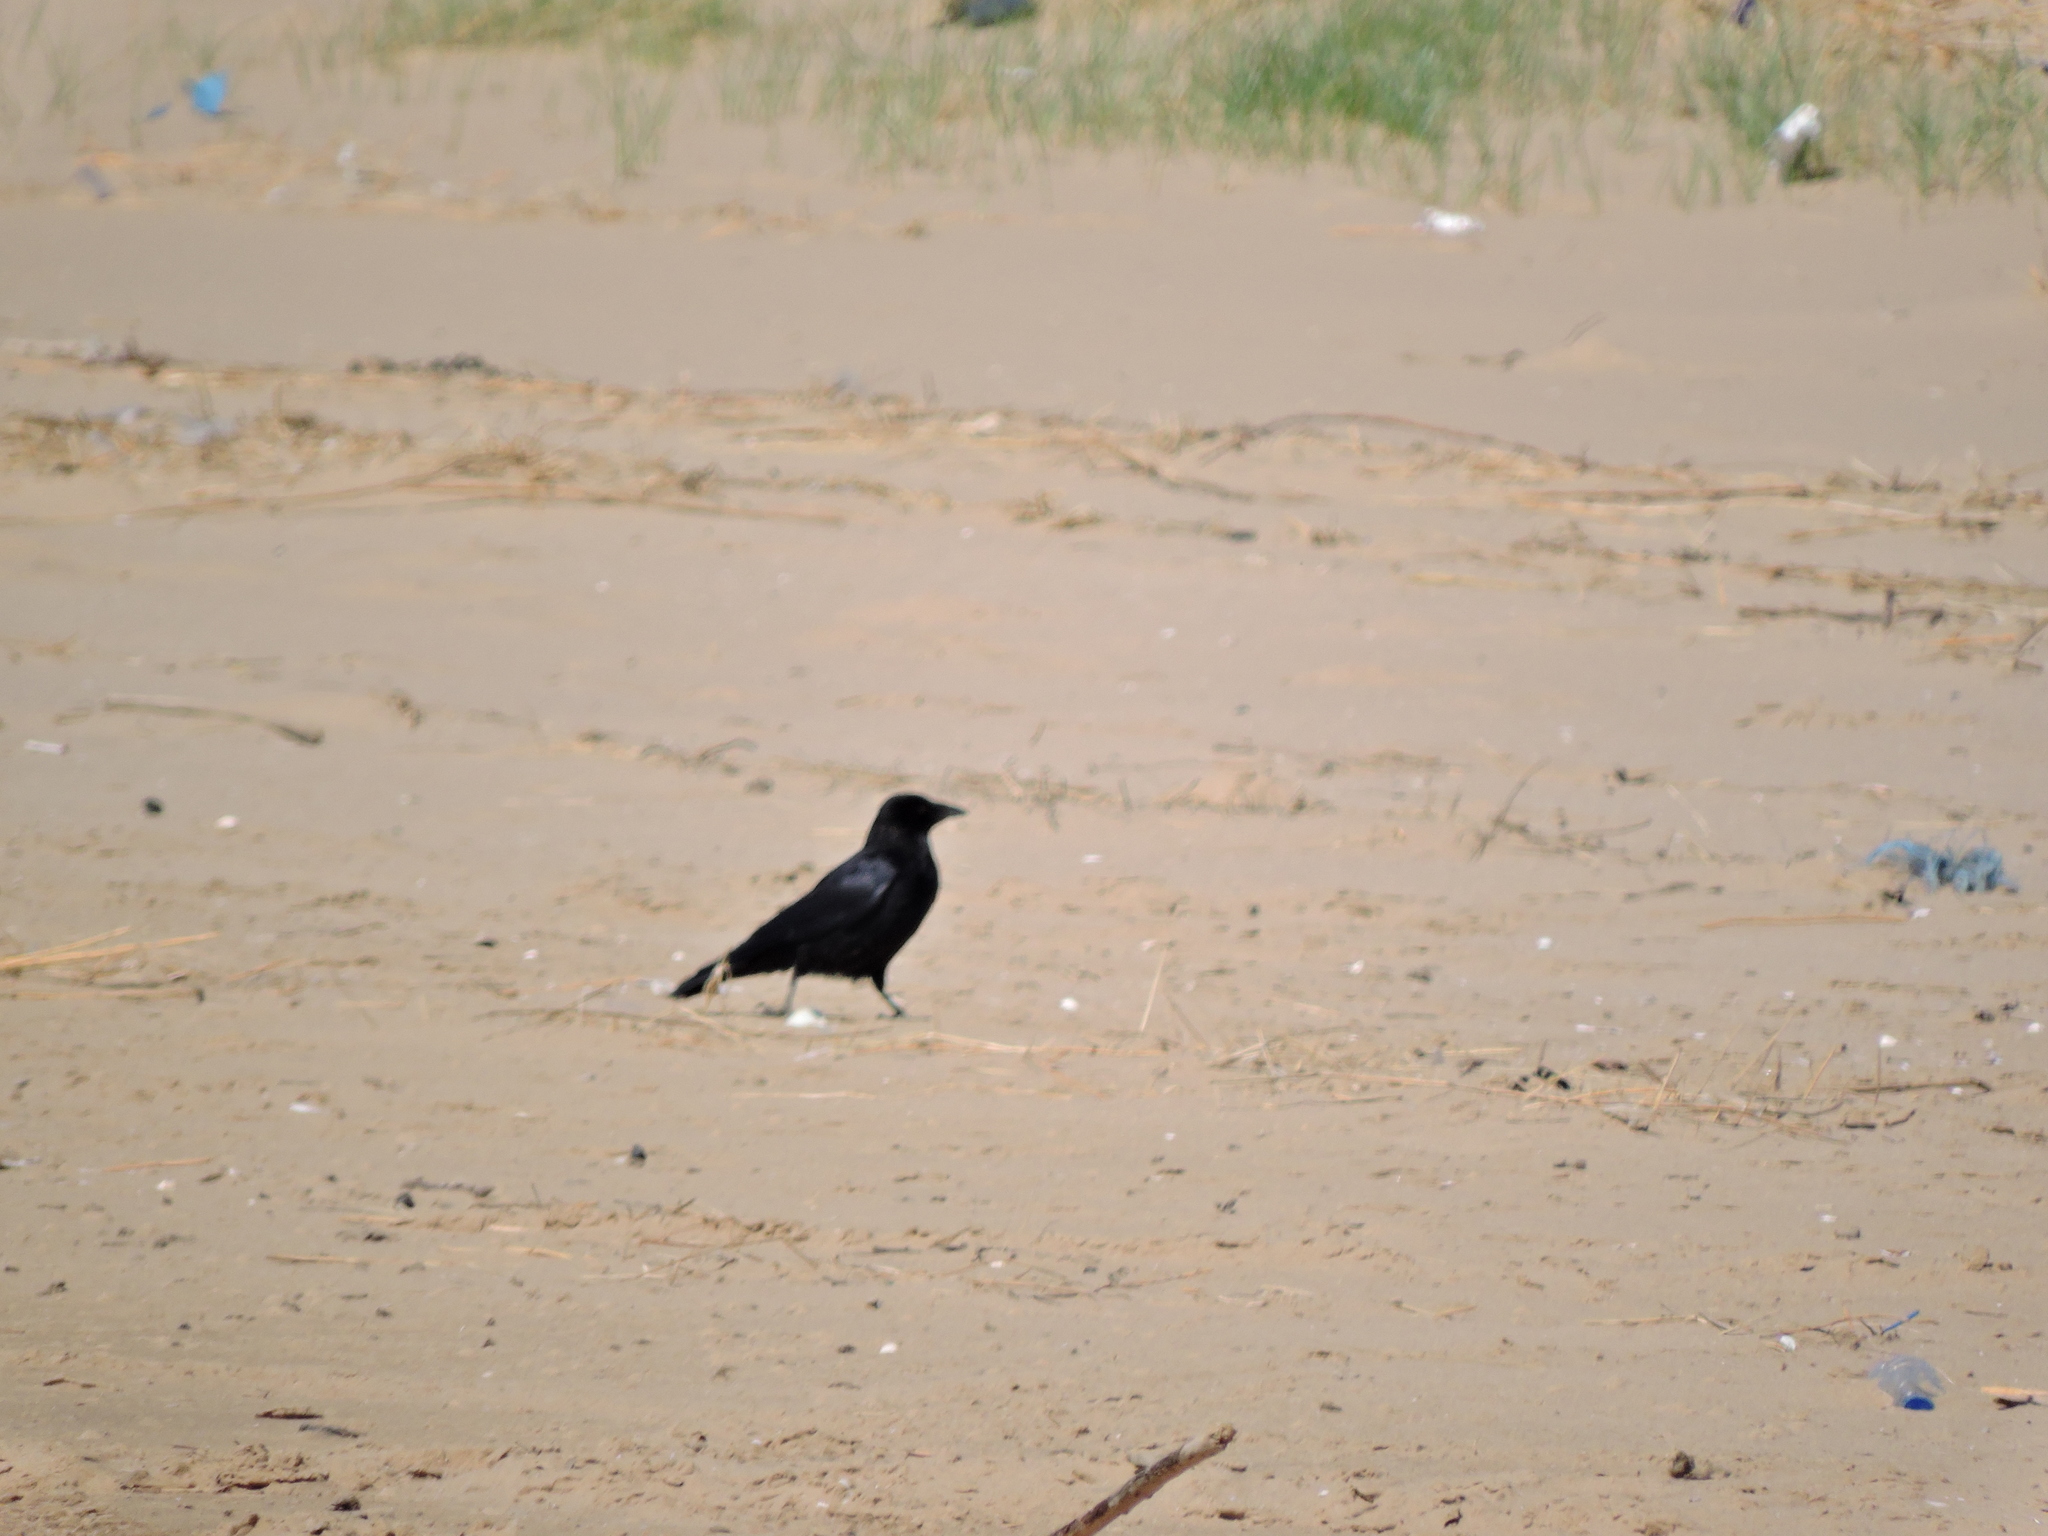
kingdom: Animalia
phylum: Chordata
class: Aves
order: Passeriformes
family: Corvidae
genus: Corvus
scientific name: Corvus corone
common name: Carrion crow
